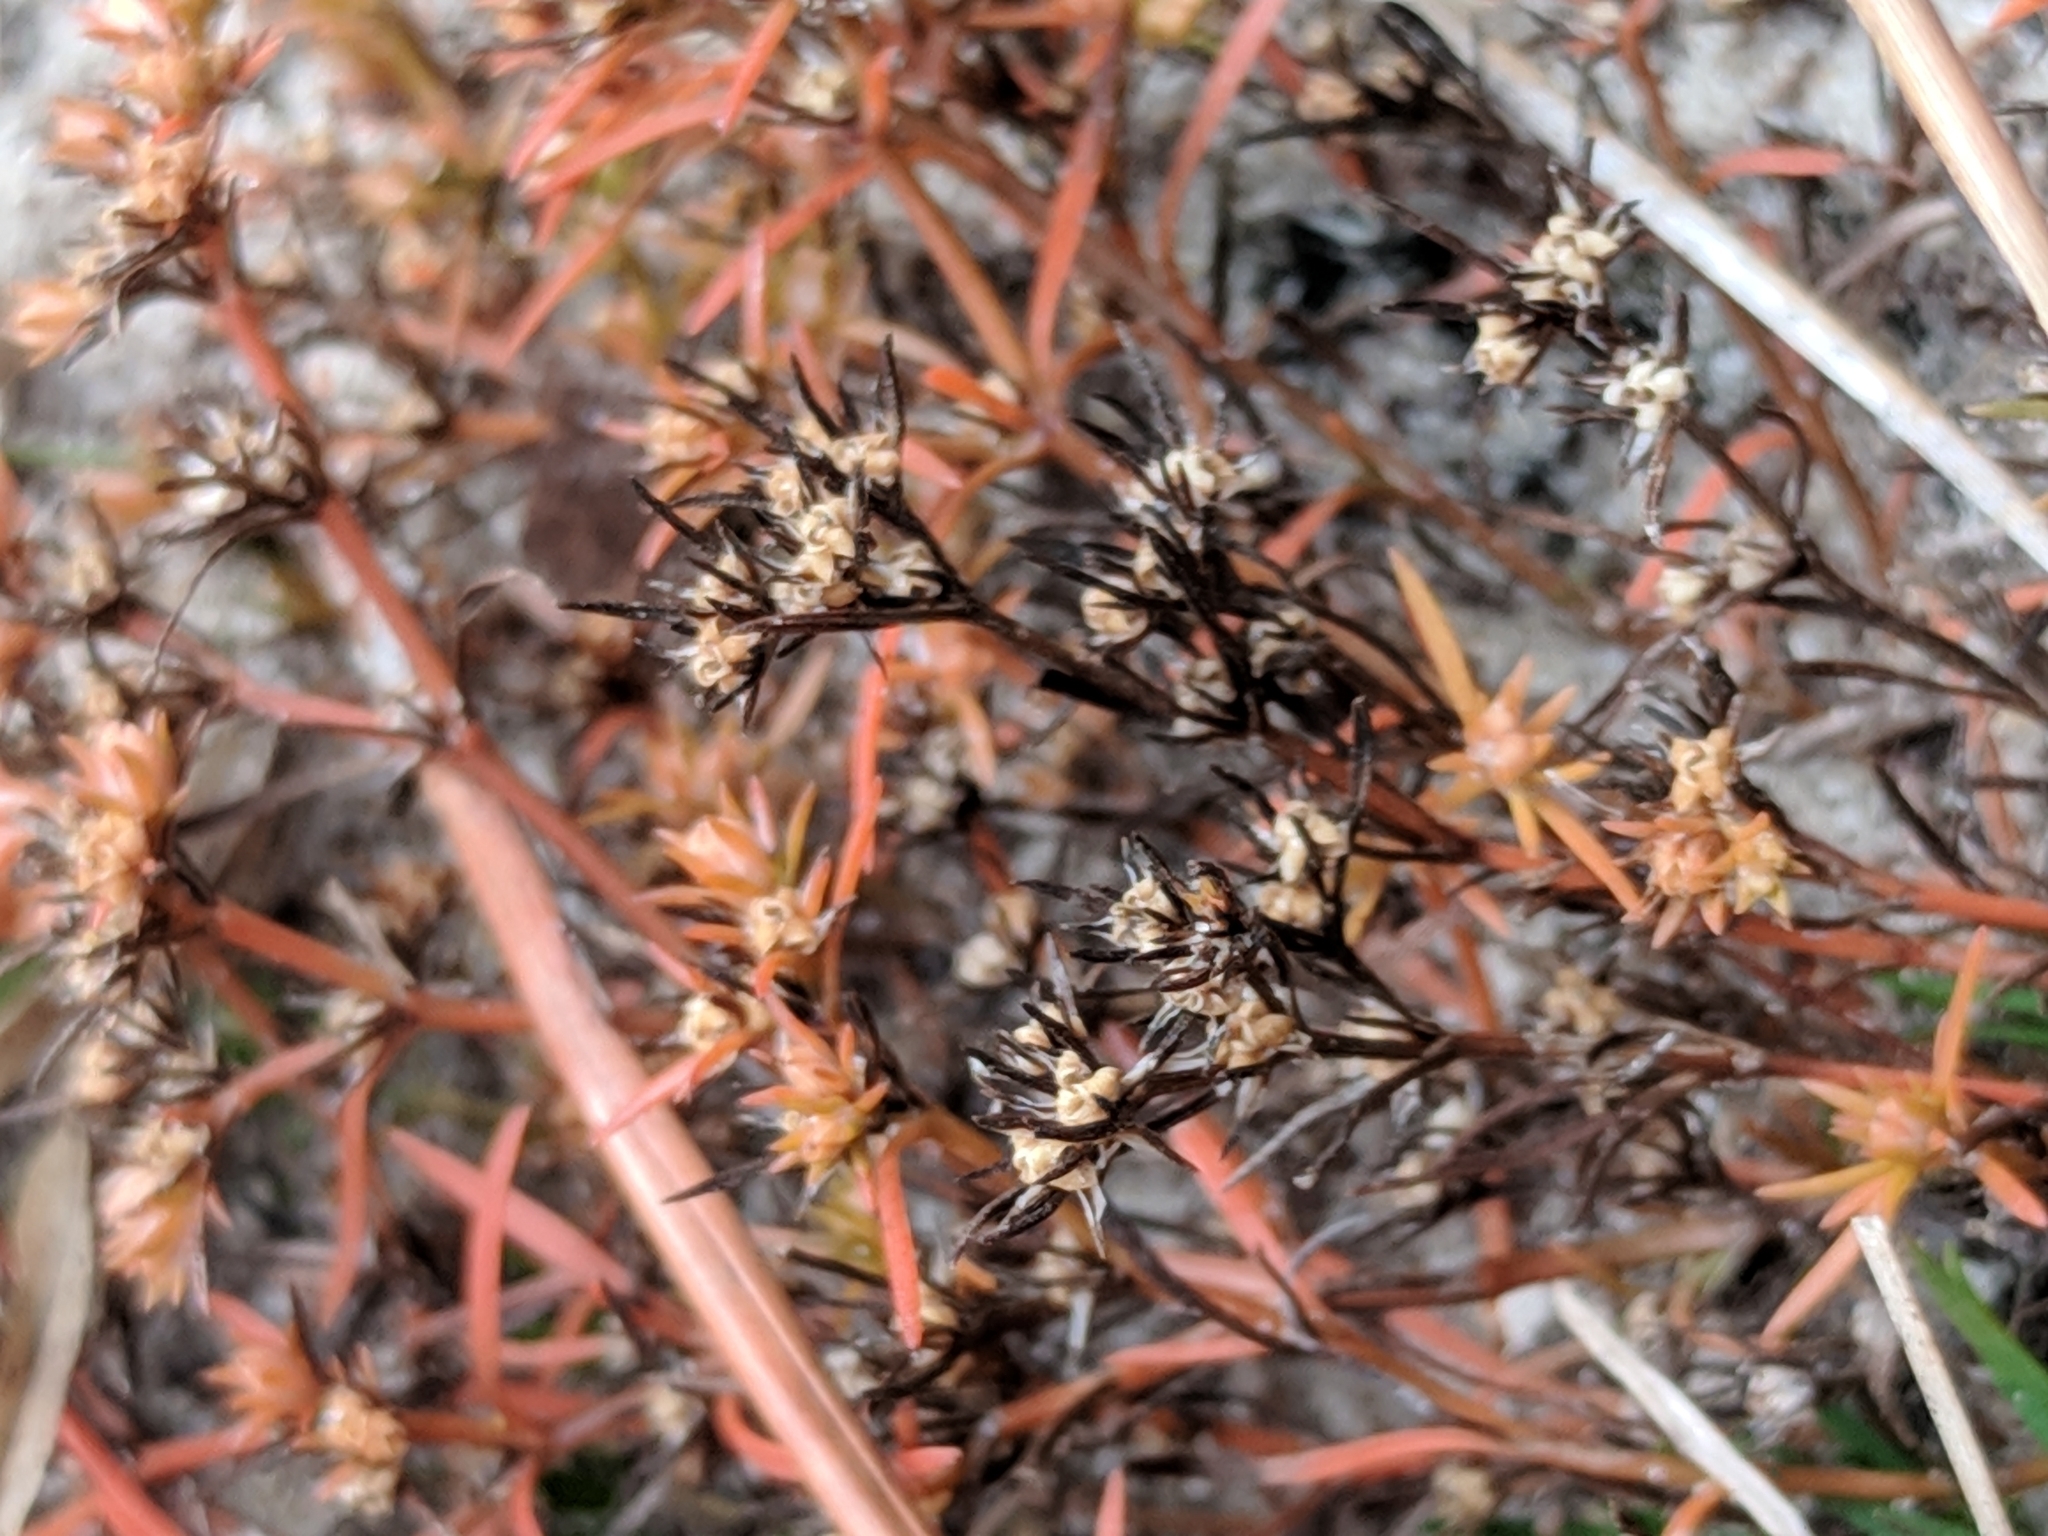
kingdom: Plantae
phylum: Tracheophyta
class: Magnoliopsida
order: Lamiales
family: Tetrachondraceae
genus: Polypremum
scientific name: Polypremum procumbens
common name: Juniper-leaf
